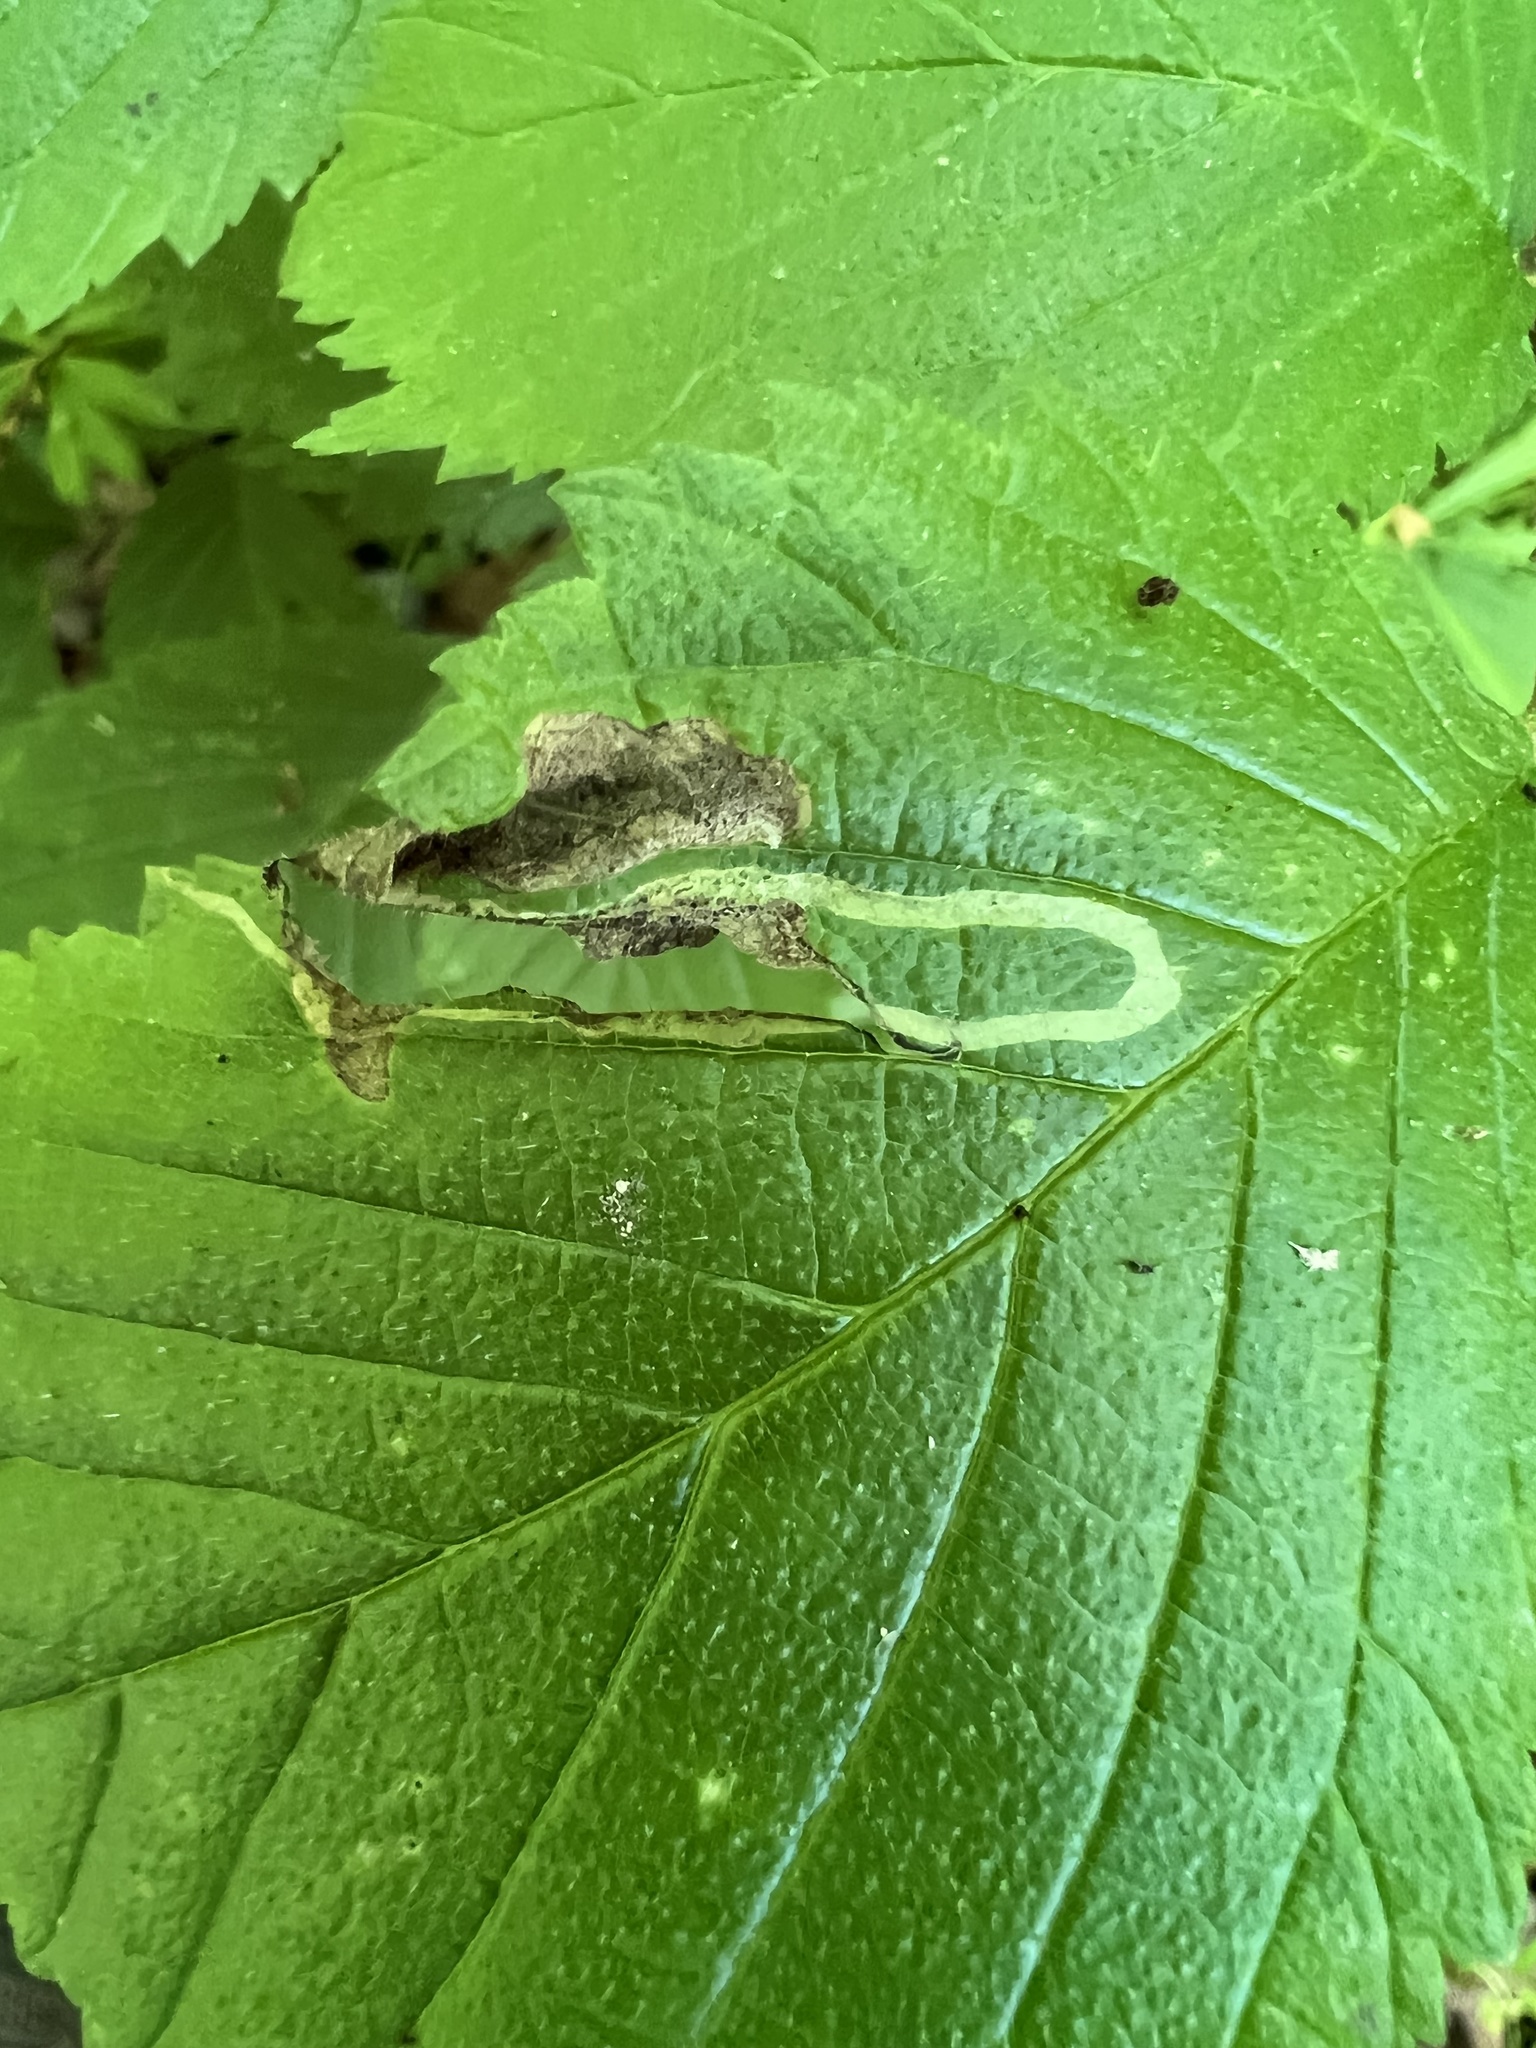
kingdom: Animalia
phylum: Arthropoda
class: Insecta
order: Diptera
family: Agromyzidae
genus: Agromyza
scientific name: Agromyza aristata
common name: Elm agromyzid leafminer
